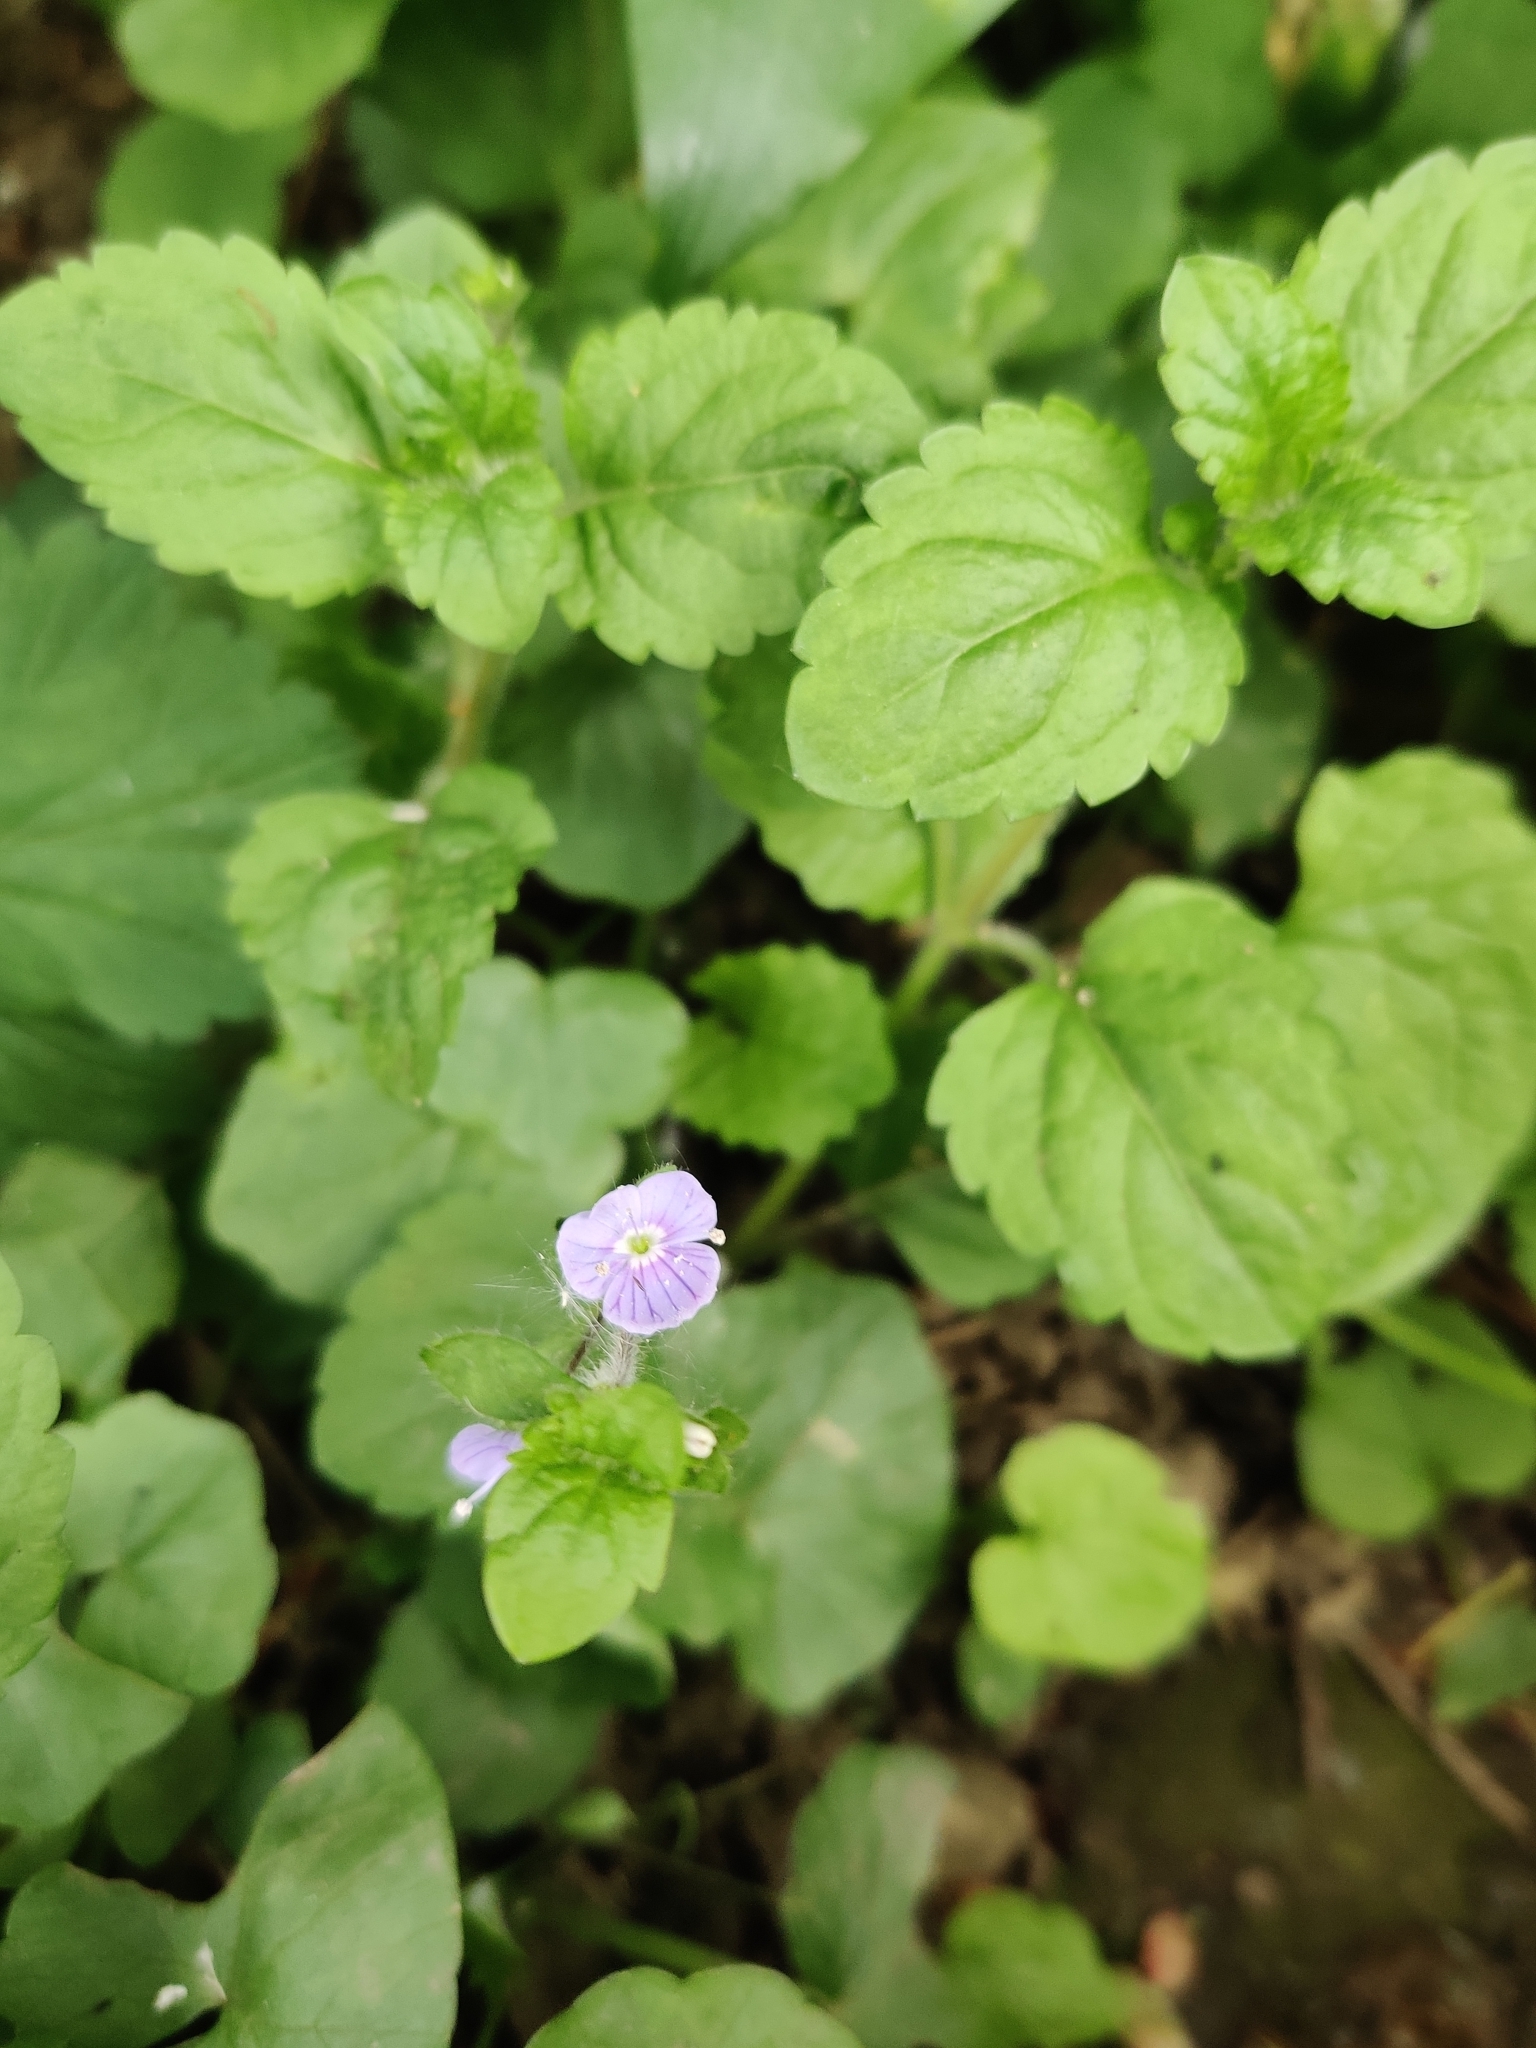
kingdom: Plantae
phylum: Tracheophyta
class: Magnoliopsida
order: Lamiales
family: Plantaginaceae
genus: Veronica
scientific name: Veronica montana
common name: Wood speedwell
